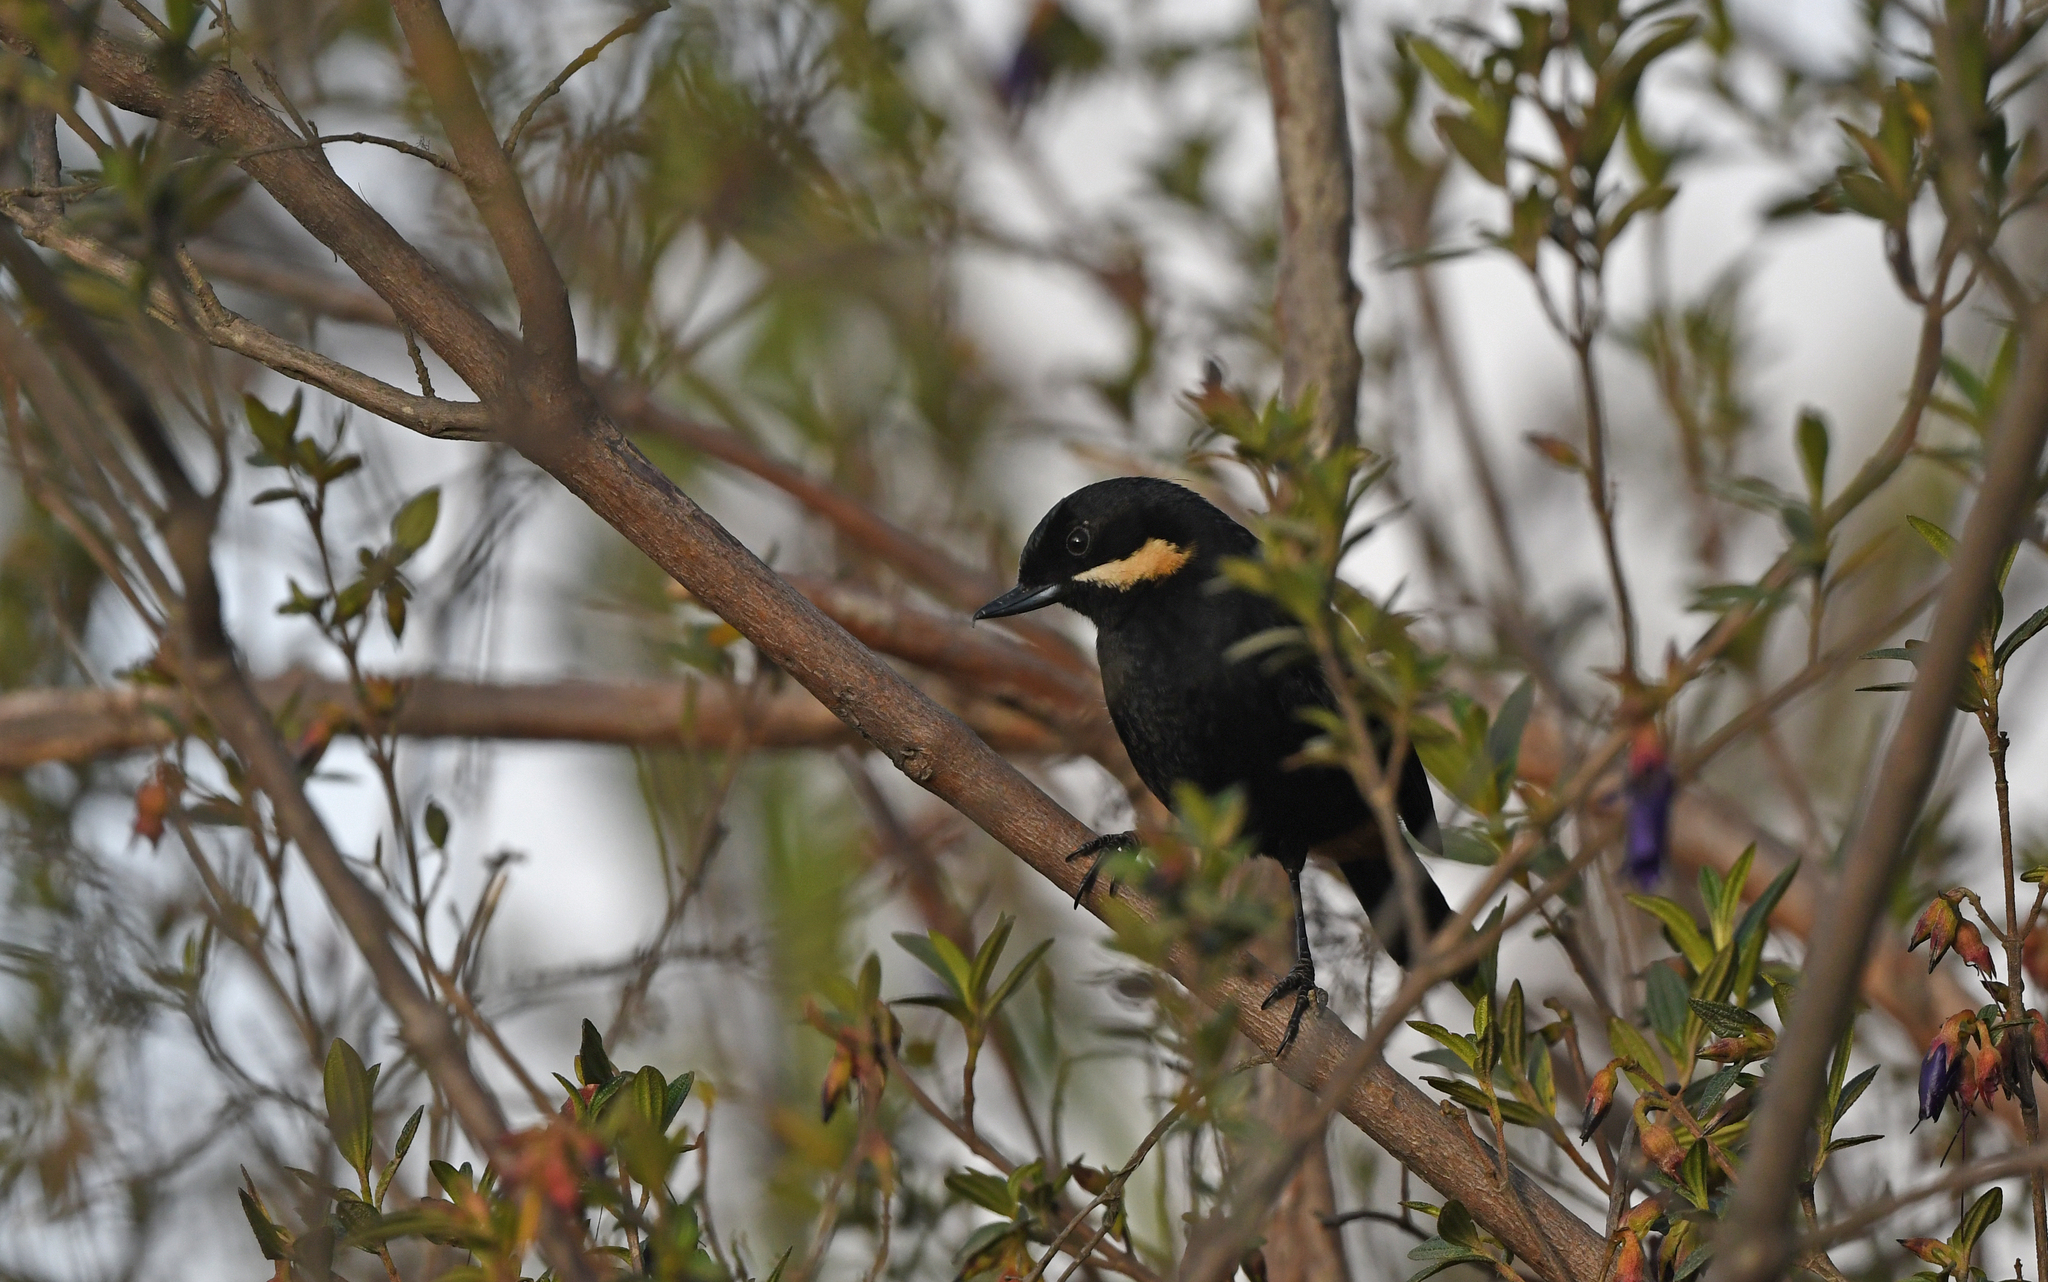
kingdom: Animalia
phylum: Chordata
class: Aves
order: Passeriformes
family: Thraupidae
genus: Diglossa
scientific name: Diglossa mystacalis
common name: Moustached flowerpiercer
